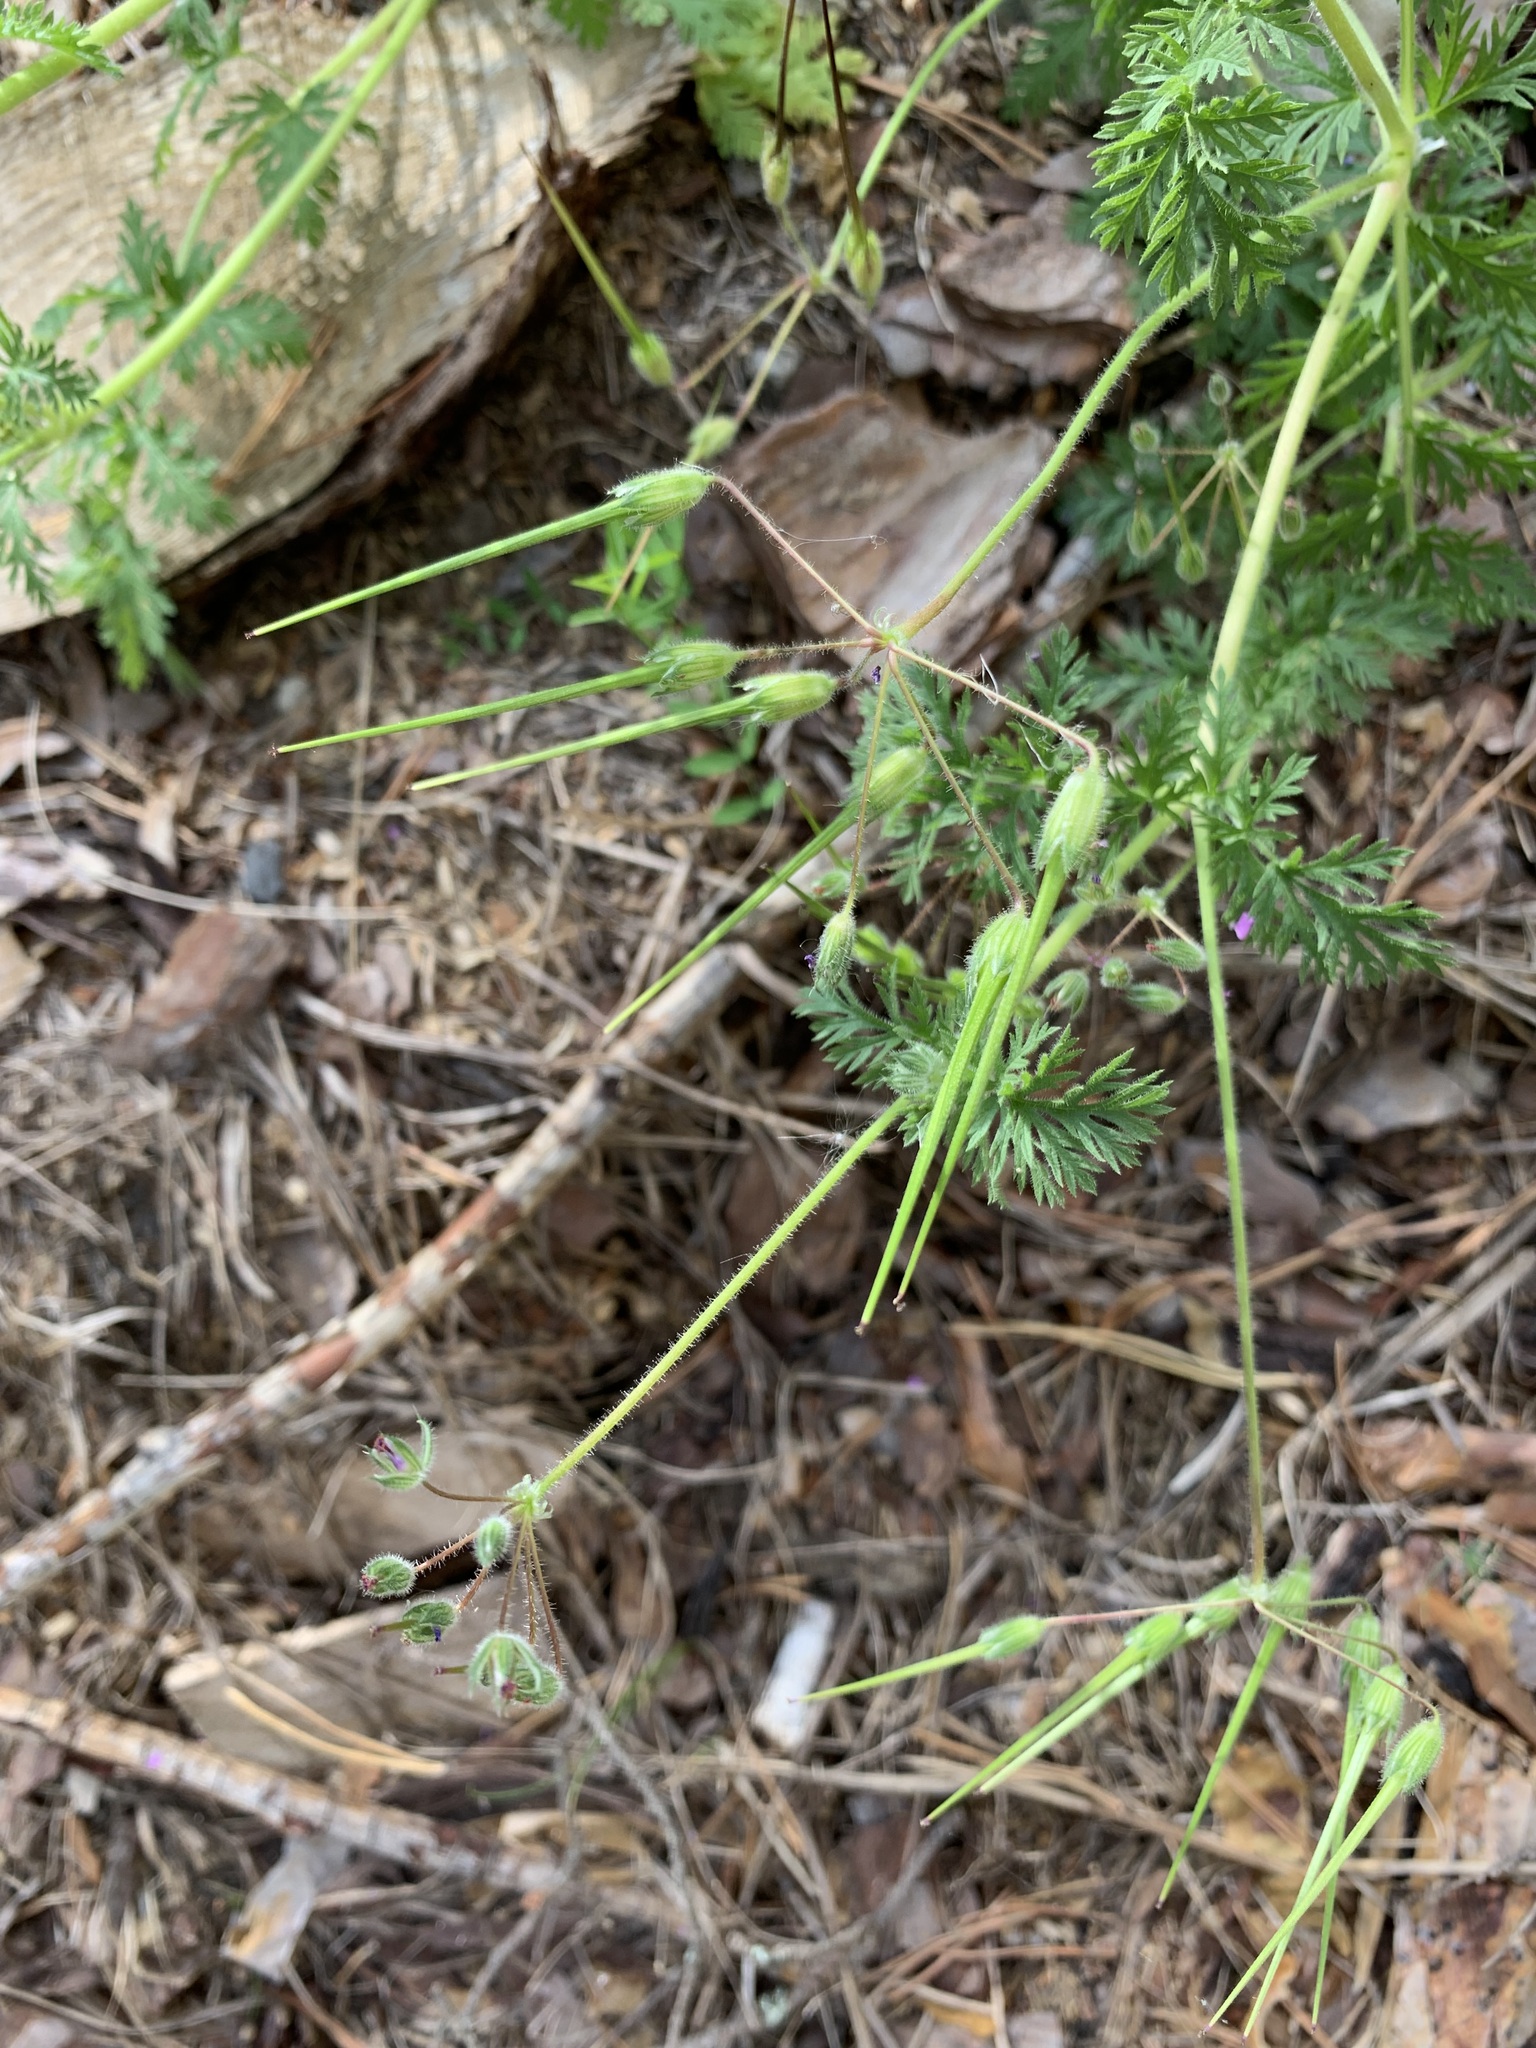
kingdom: Plantae
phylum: Tracheophyta
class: Magnoliopsida
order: Geraniales
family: Geraniaceae
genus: Erodium
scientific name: Erodium cicutarium
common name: Common stork's-bill
